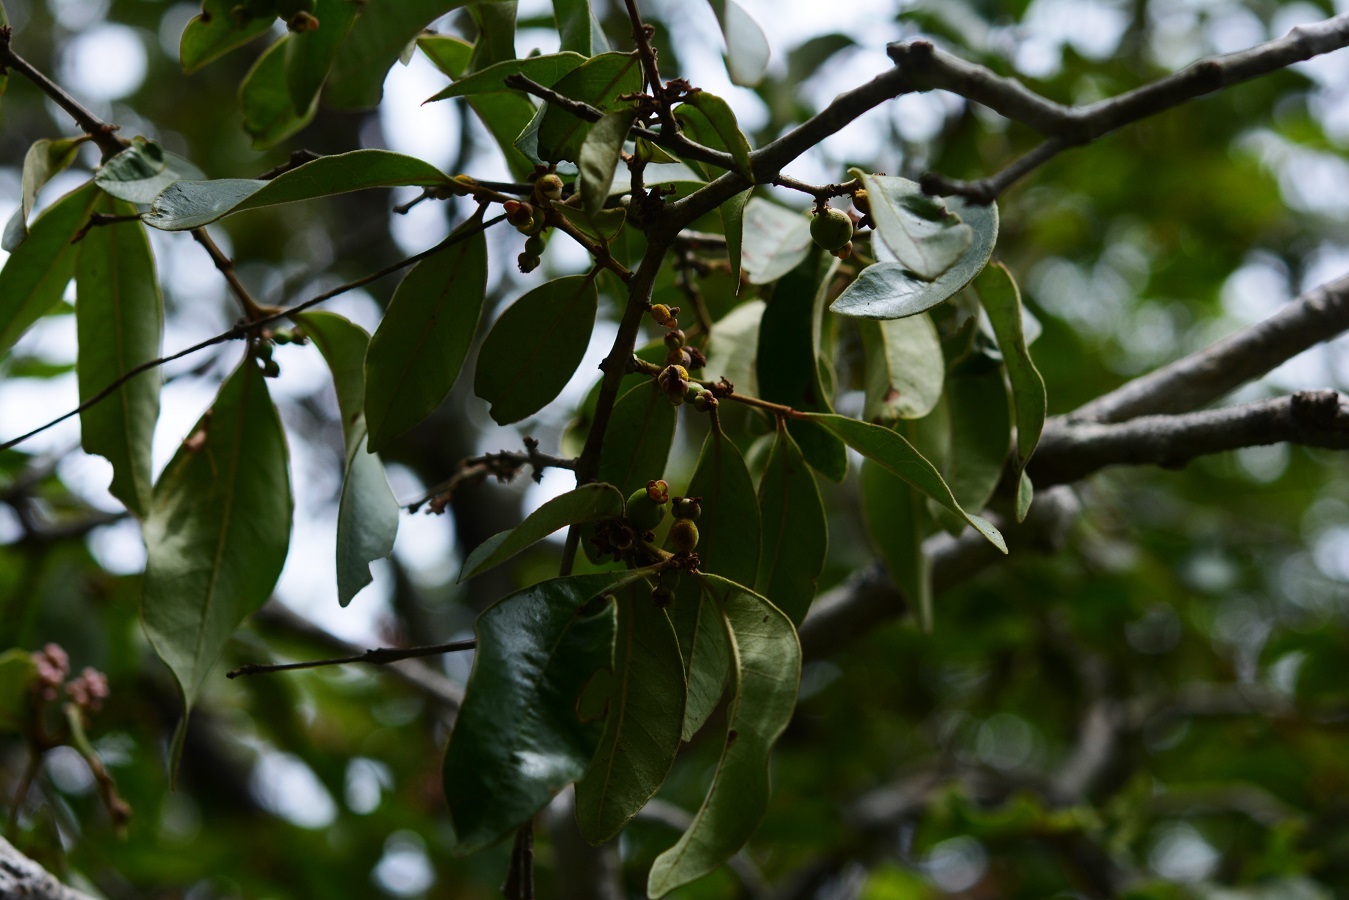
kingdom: Plantae
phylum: Tracheophyta
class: Magnoliopsida
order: Myrtales
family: Myrtaceae
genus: Eugenia
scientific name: Eugenia acapulcensis
